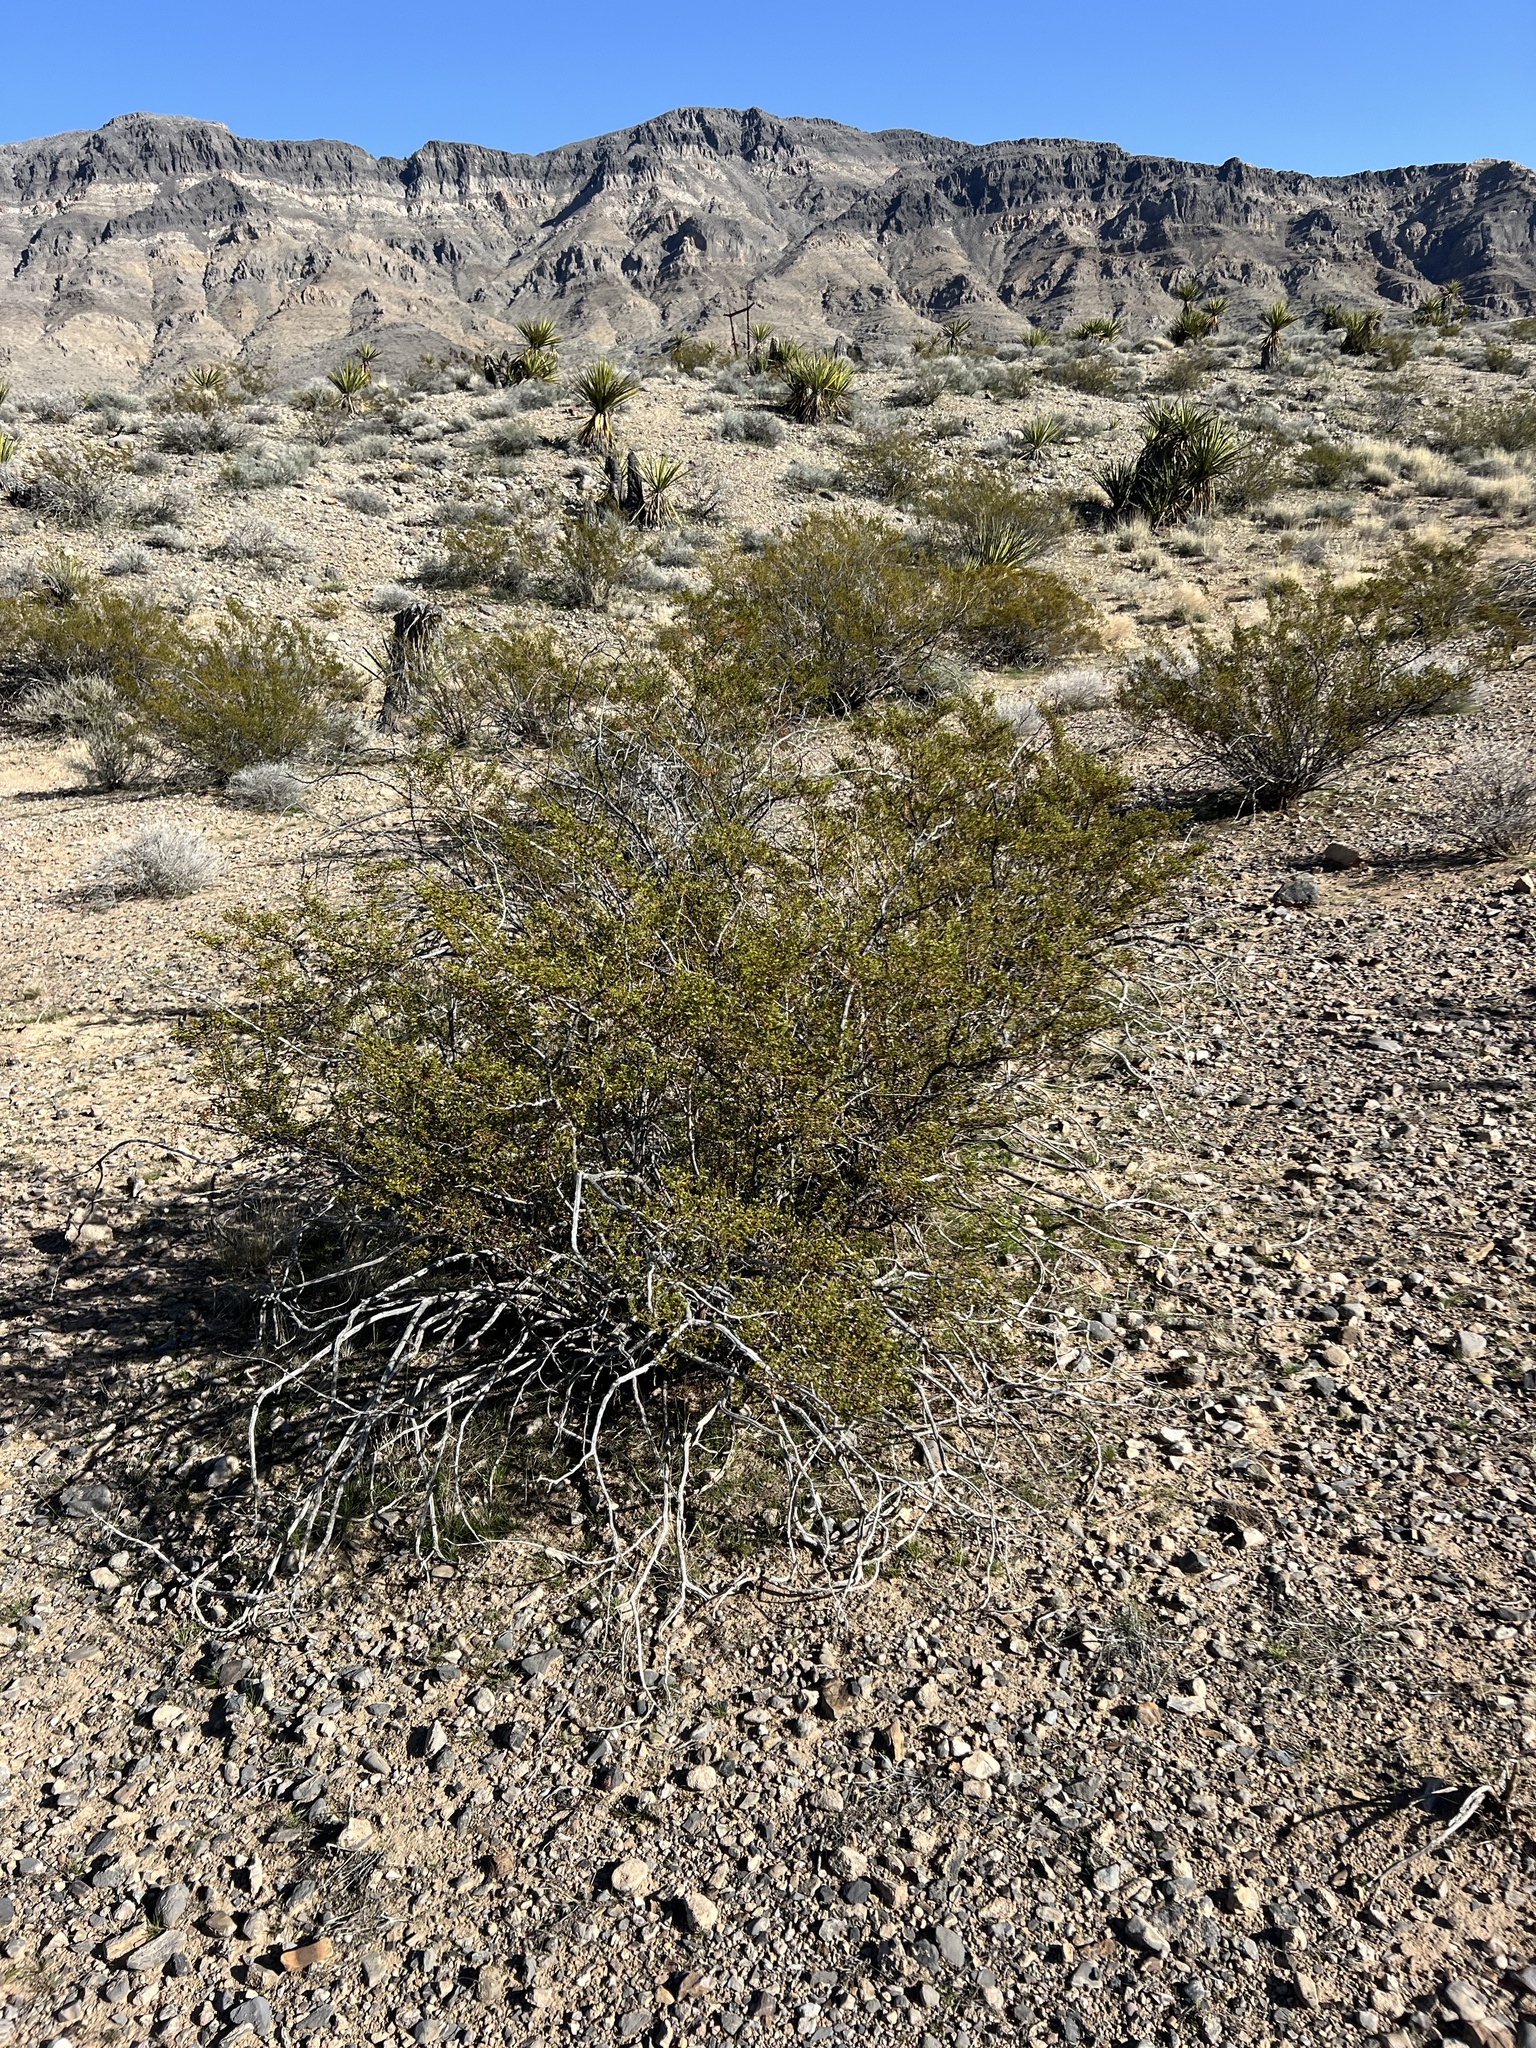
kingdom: Plantae
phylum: Tracheophyta
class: Magnoliopsida
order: Zygophyllales
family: Zygophyllaceae
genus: Larrea
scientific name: Larrea tridentata
